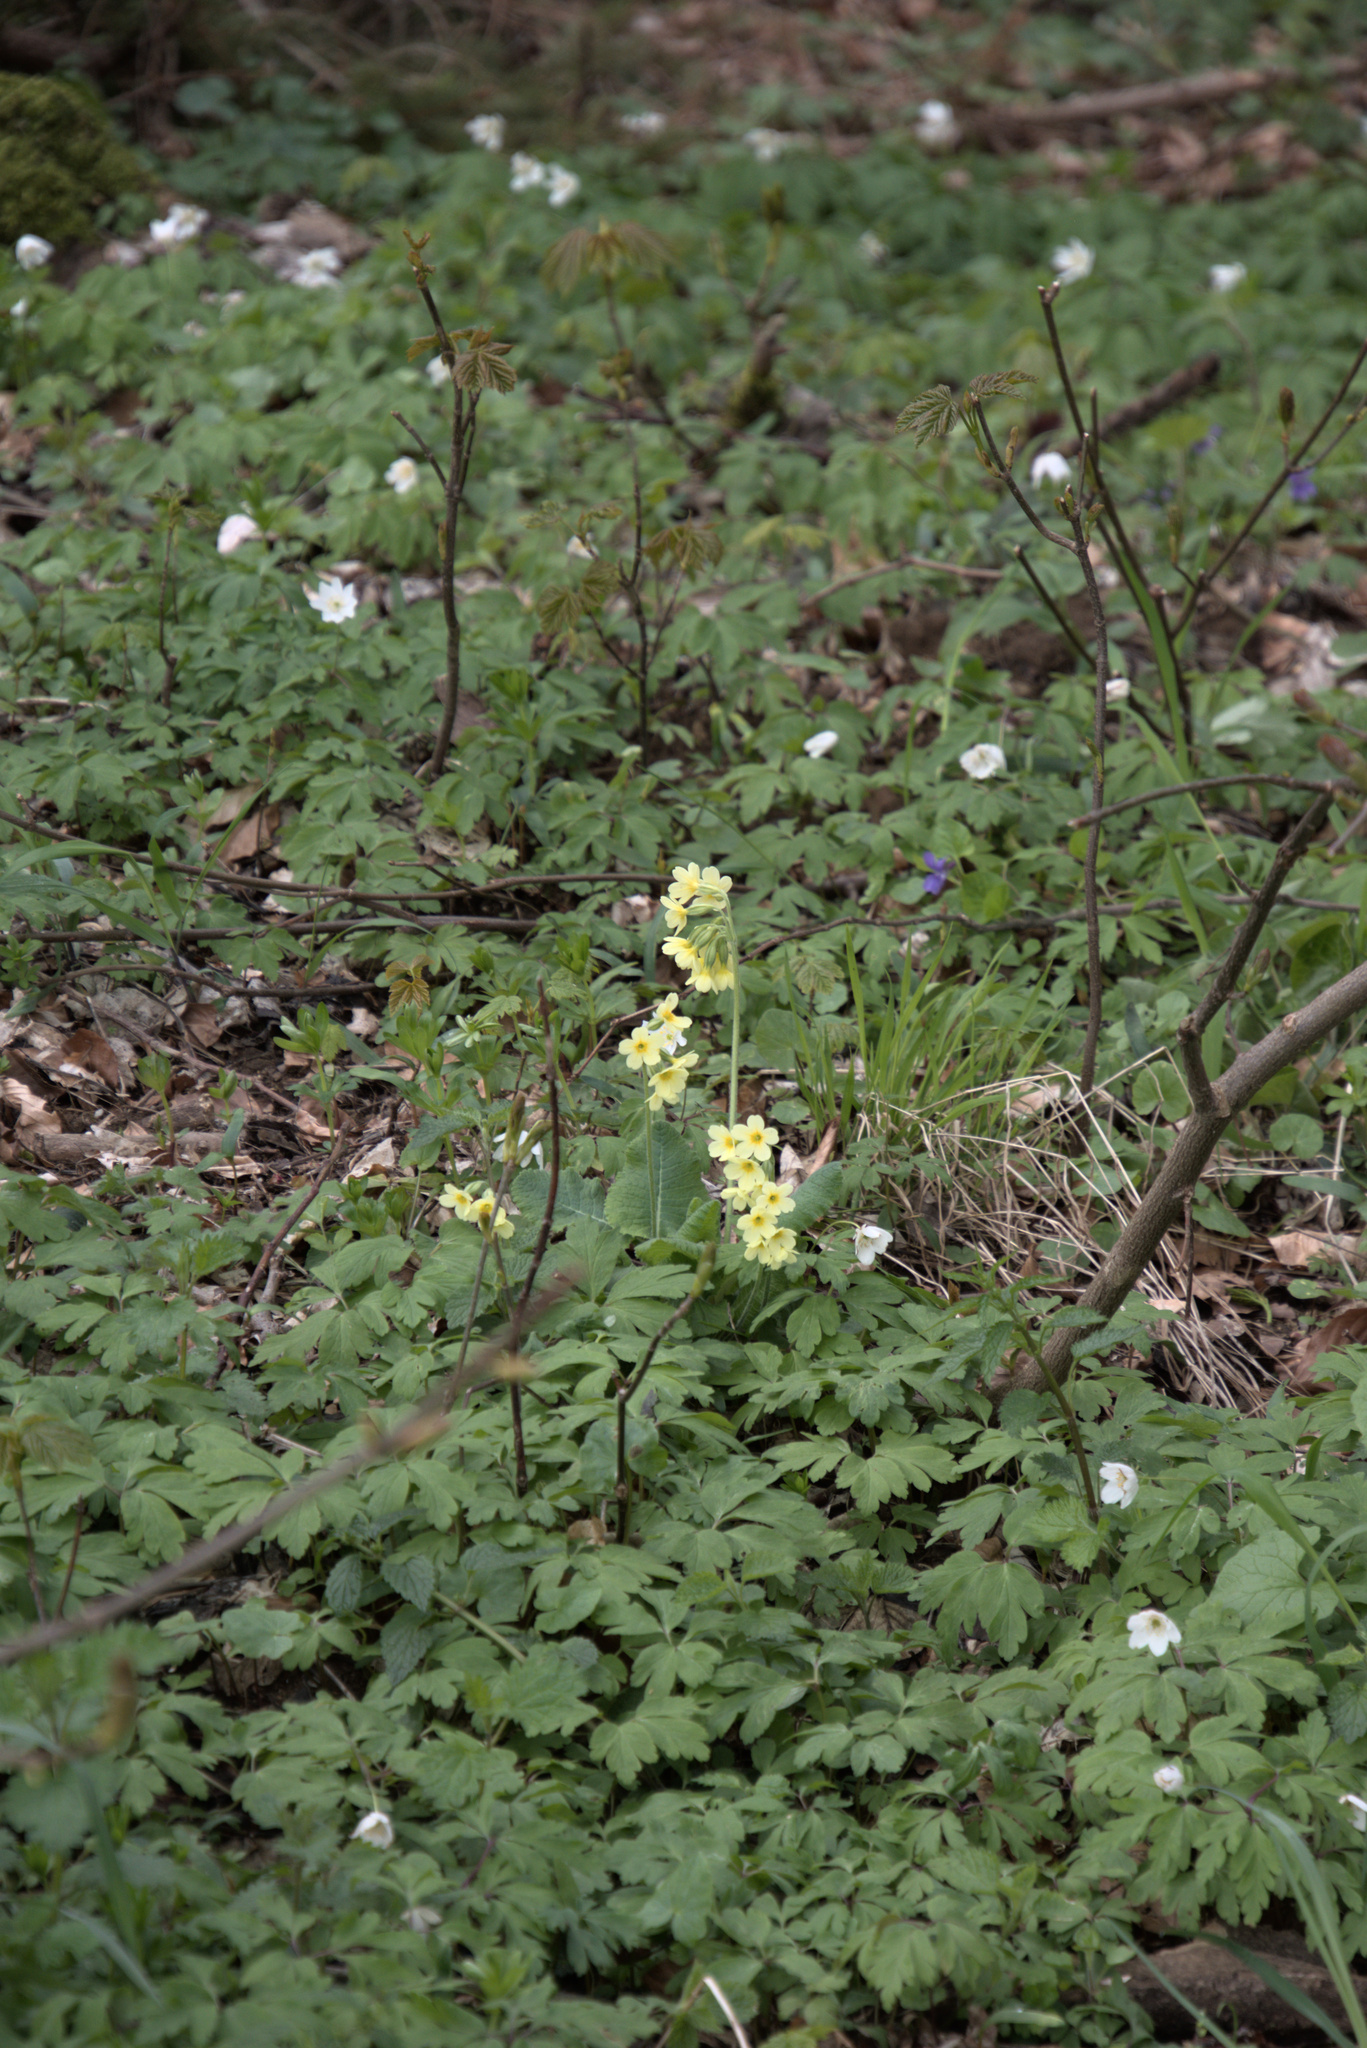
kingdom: Plantae
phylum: Tracheophyta
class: Magnoliopsida
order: Ericales
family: Primulaceae
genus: Primula
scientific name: Primula elatior
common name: Oxlip
